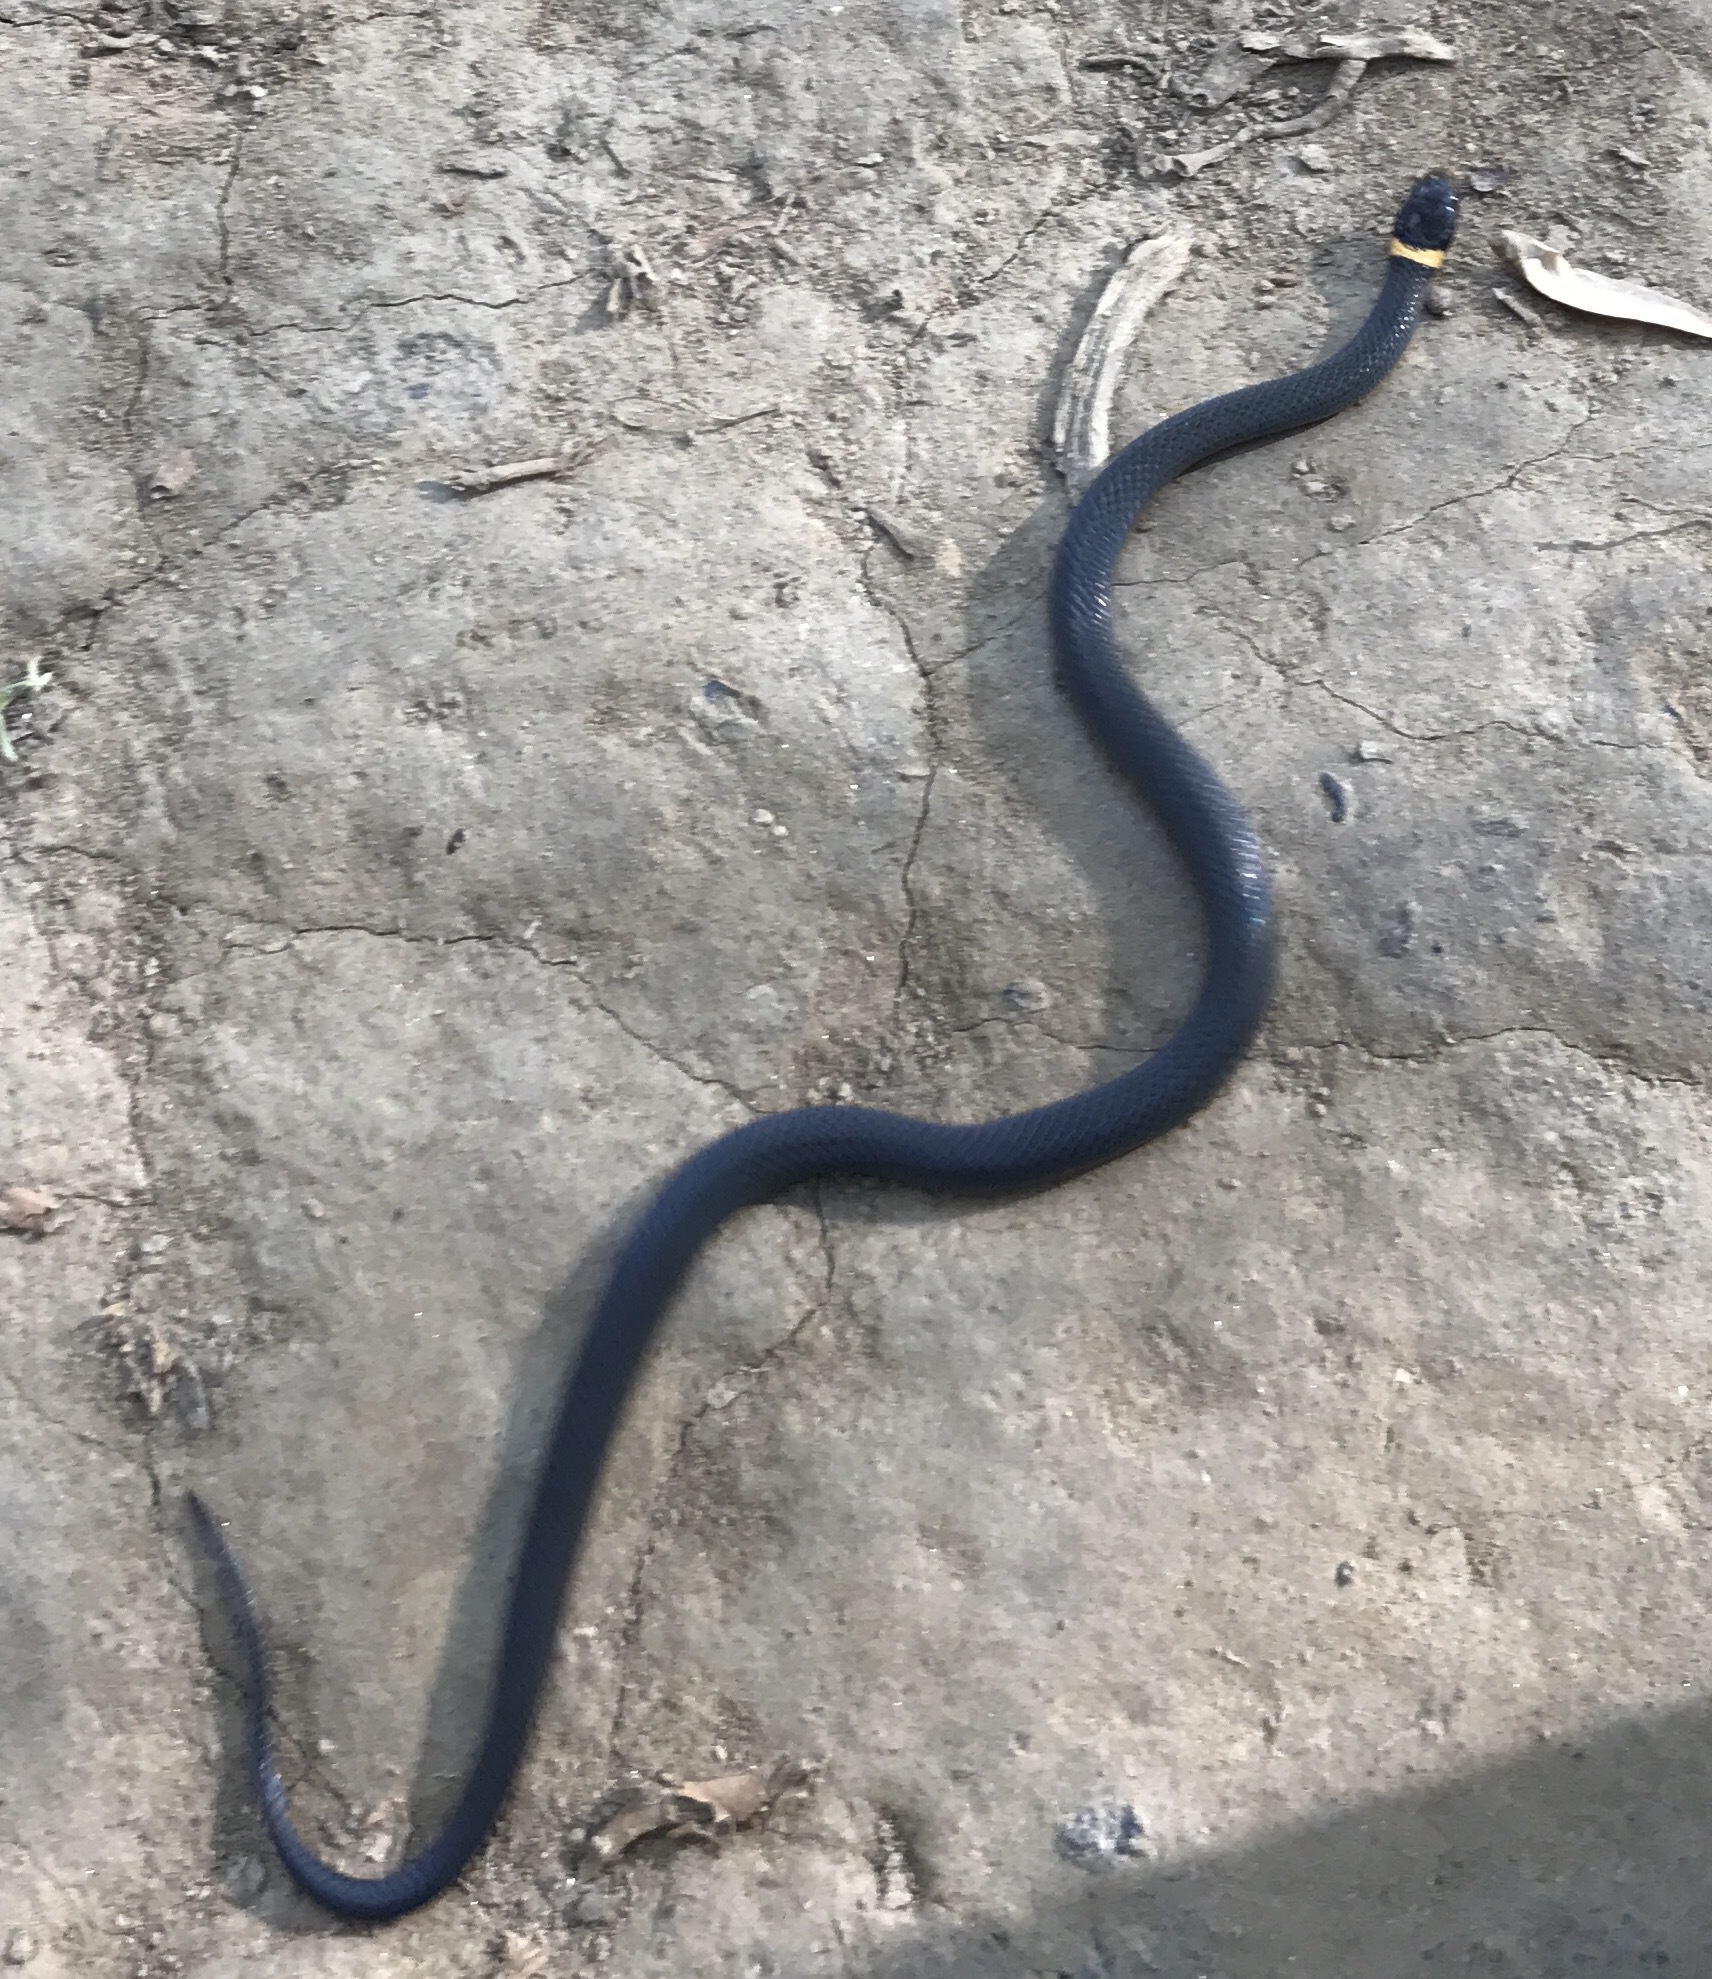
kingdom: Animalia
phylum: Chordata
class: Squamata
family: Colubridae
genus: Diadophis
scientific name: Diadophis punctatus
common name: Ringneck snake
